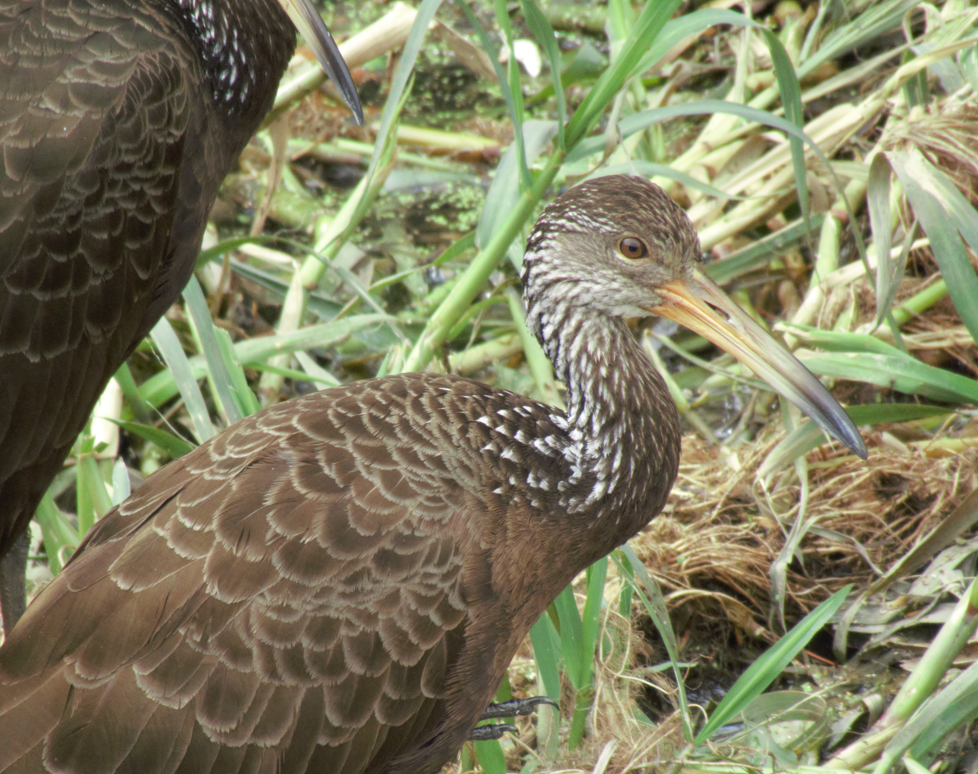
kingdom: Animalia
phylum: Chordata
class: Aves
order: Gruiformes
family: Aramidae
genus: Aramus
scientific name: Aramus guarauna
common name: Limpkin
